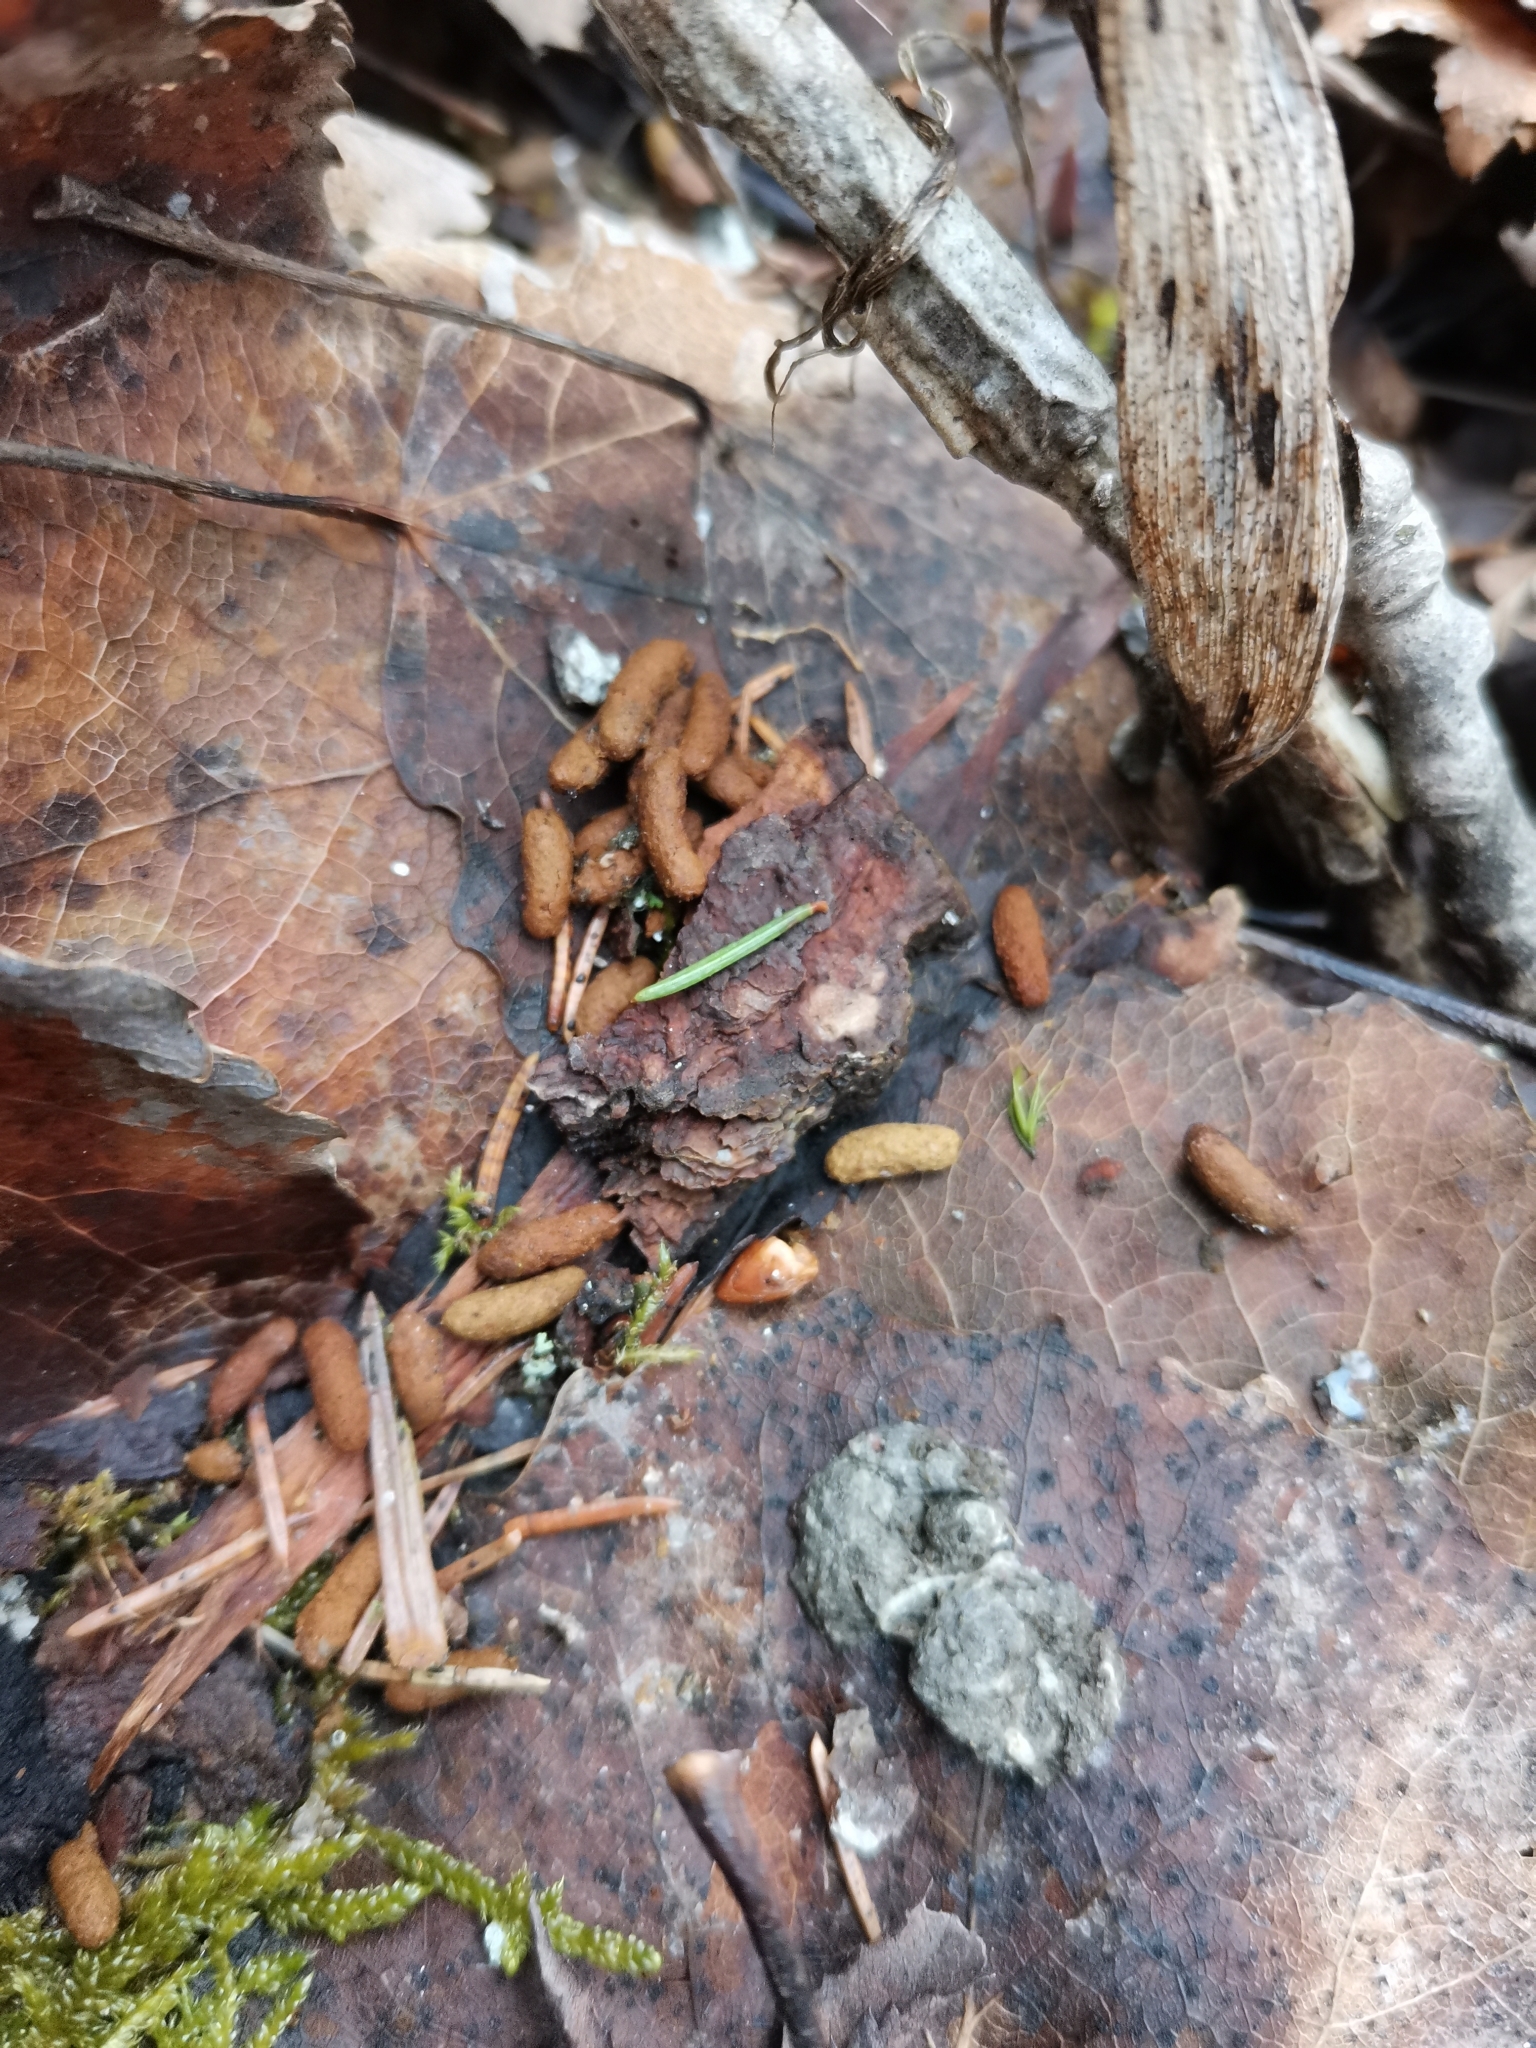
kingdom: Animalia
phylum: Chordata
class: Mammalia
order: Rodentia
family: Sciuridae
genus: Pteromys
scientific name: Pteromys volans
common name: Siberian flying squirrel
